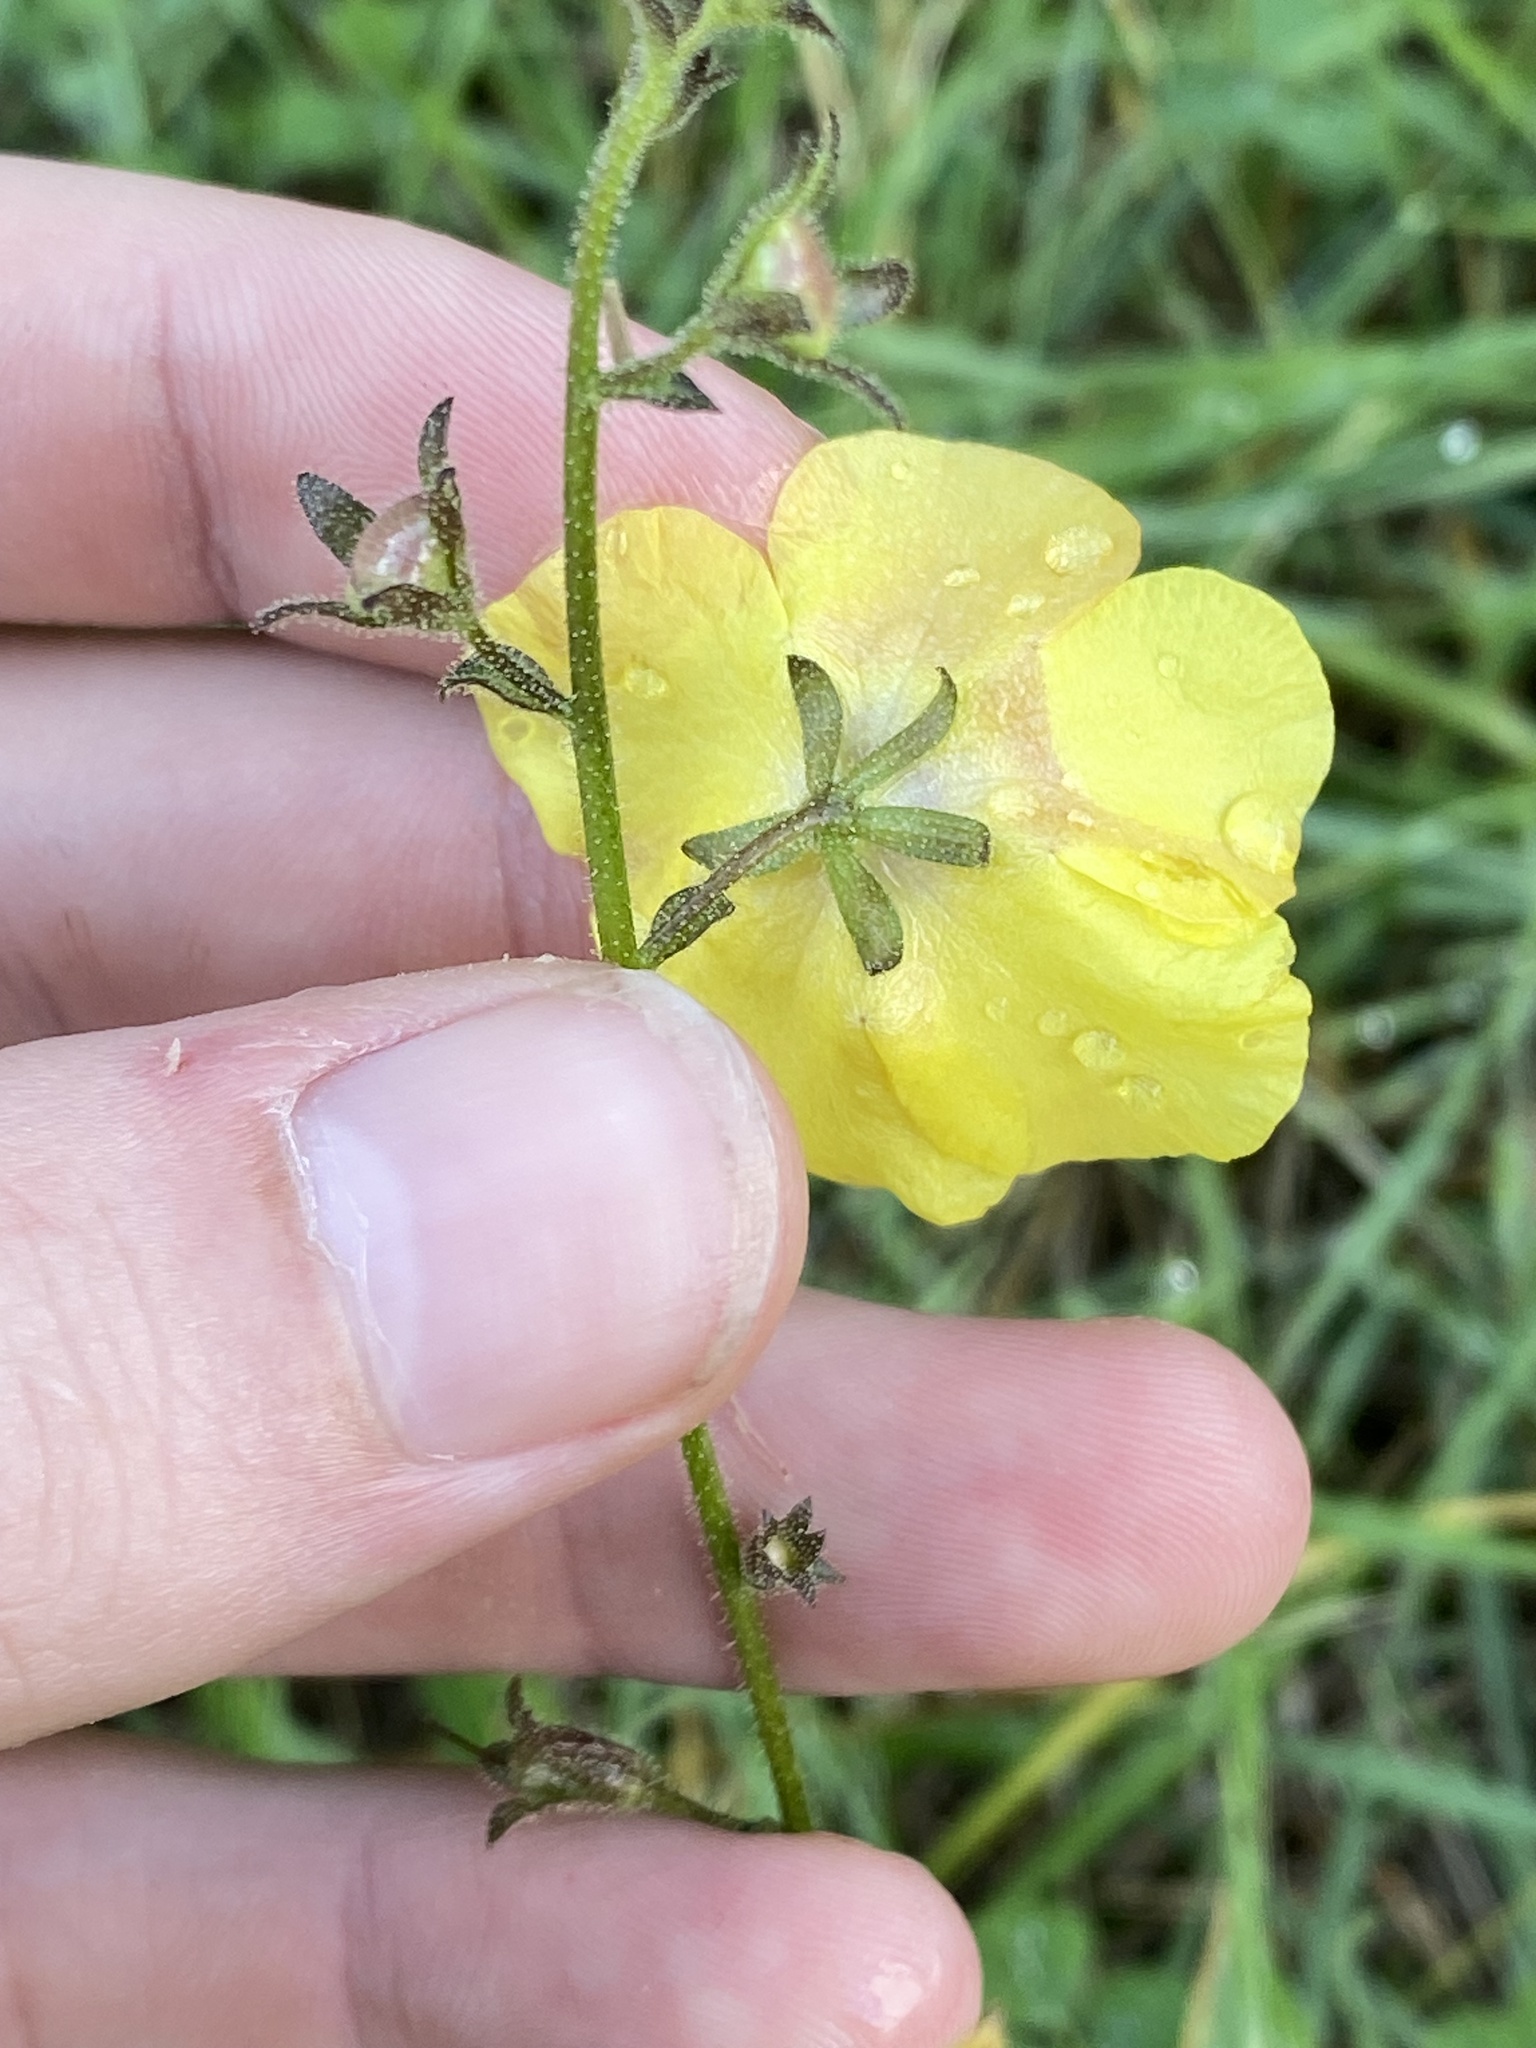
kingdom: Plantae
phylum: Tracheophyta
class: Magnoliopsida
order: Lamiales
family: Scrophulariaceae
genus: Verbascum
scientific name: Verbascum blattaria
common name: Moth mullein
